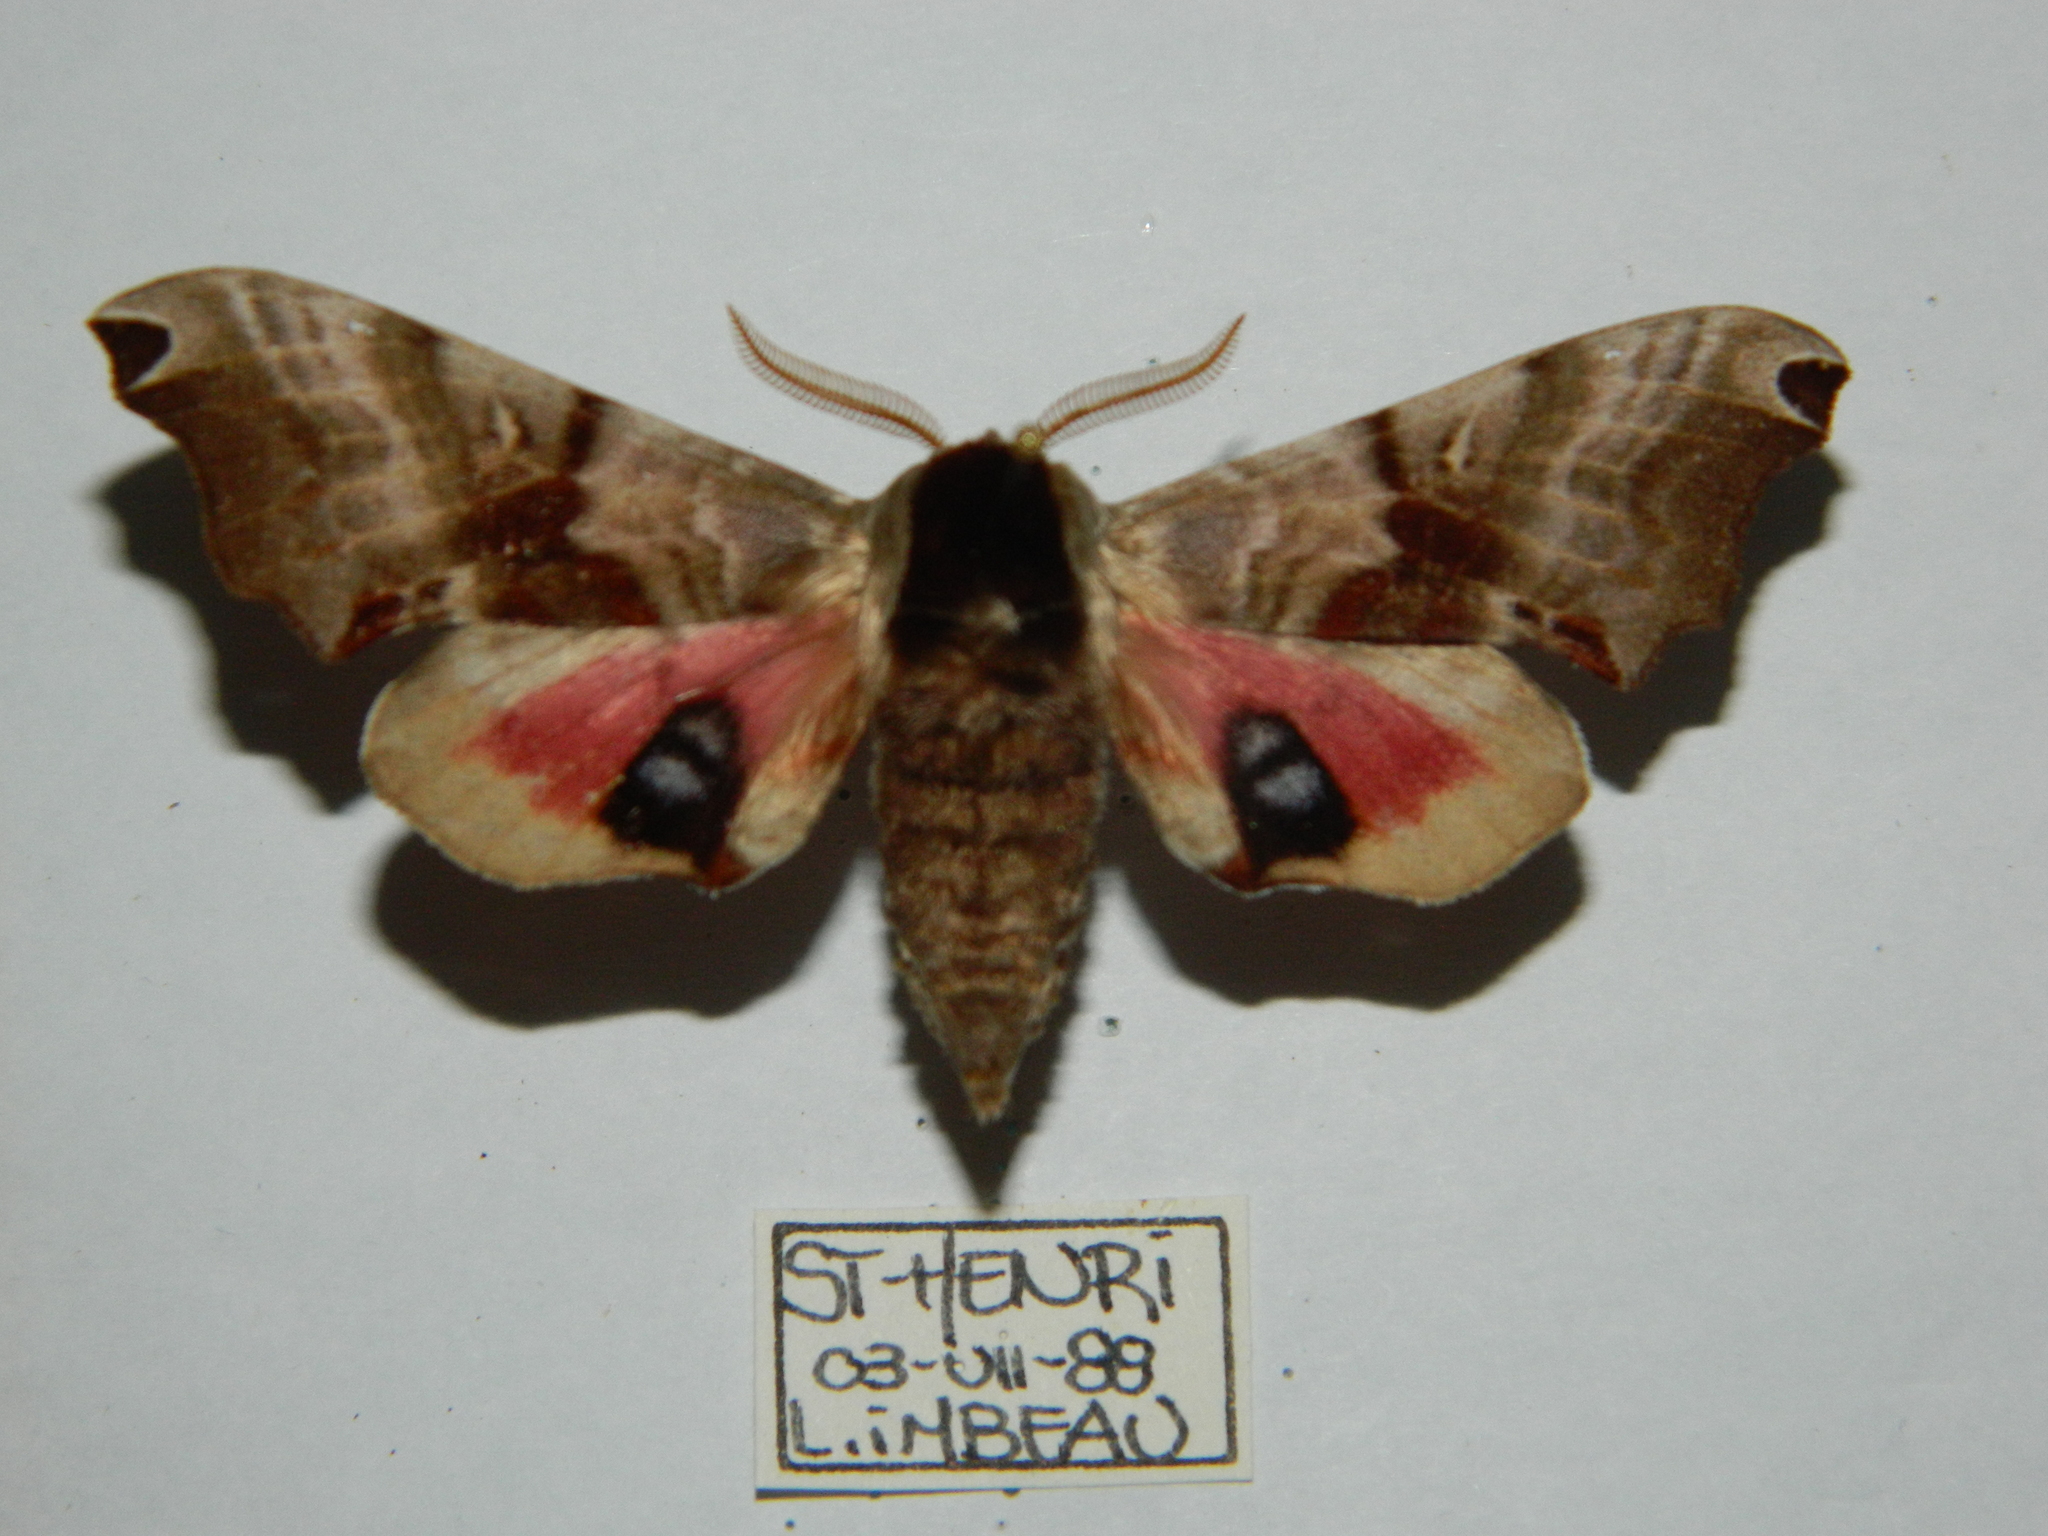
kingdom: Animalia
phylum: Arthropoda
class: Insecta
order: Lepidoptera
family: Sphingidae
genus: Smerinthus
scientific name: Smerinthus jamaicensis
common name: Twin spotted sphinx
